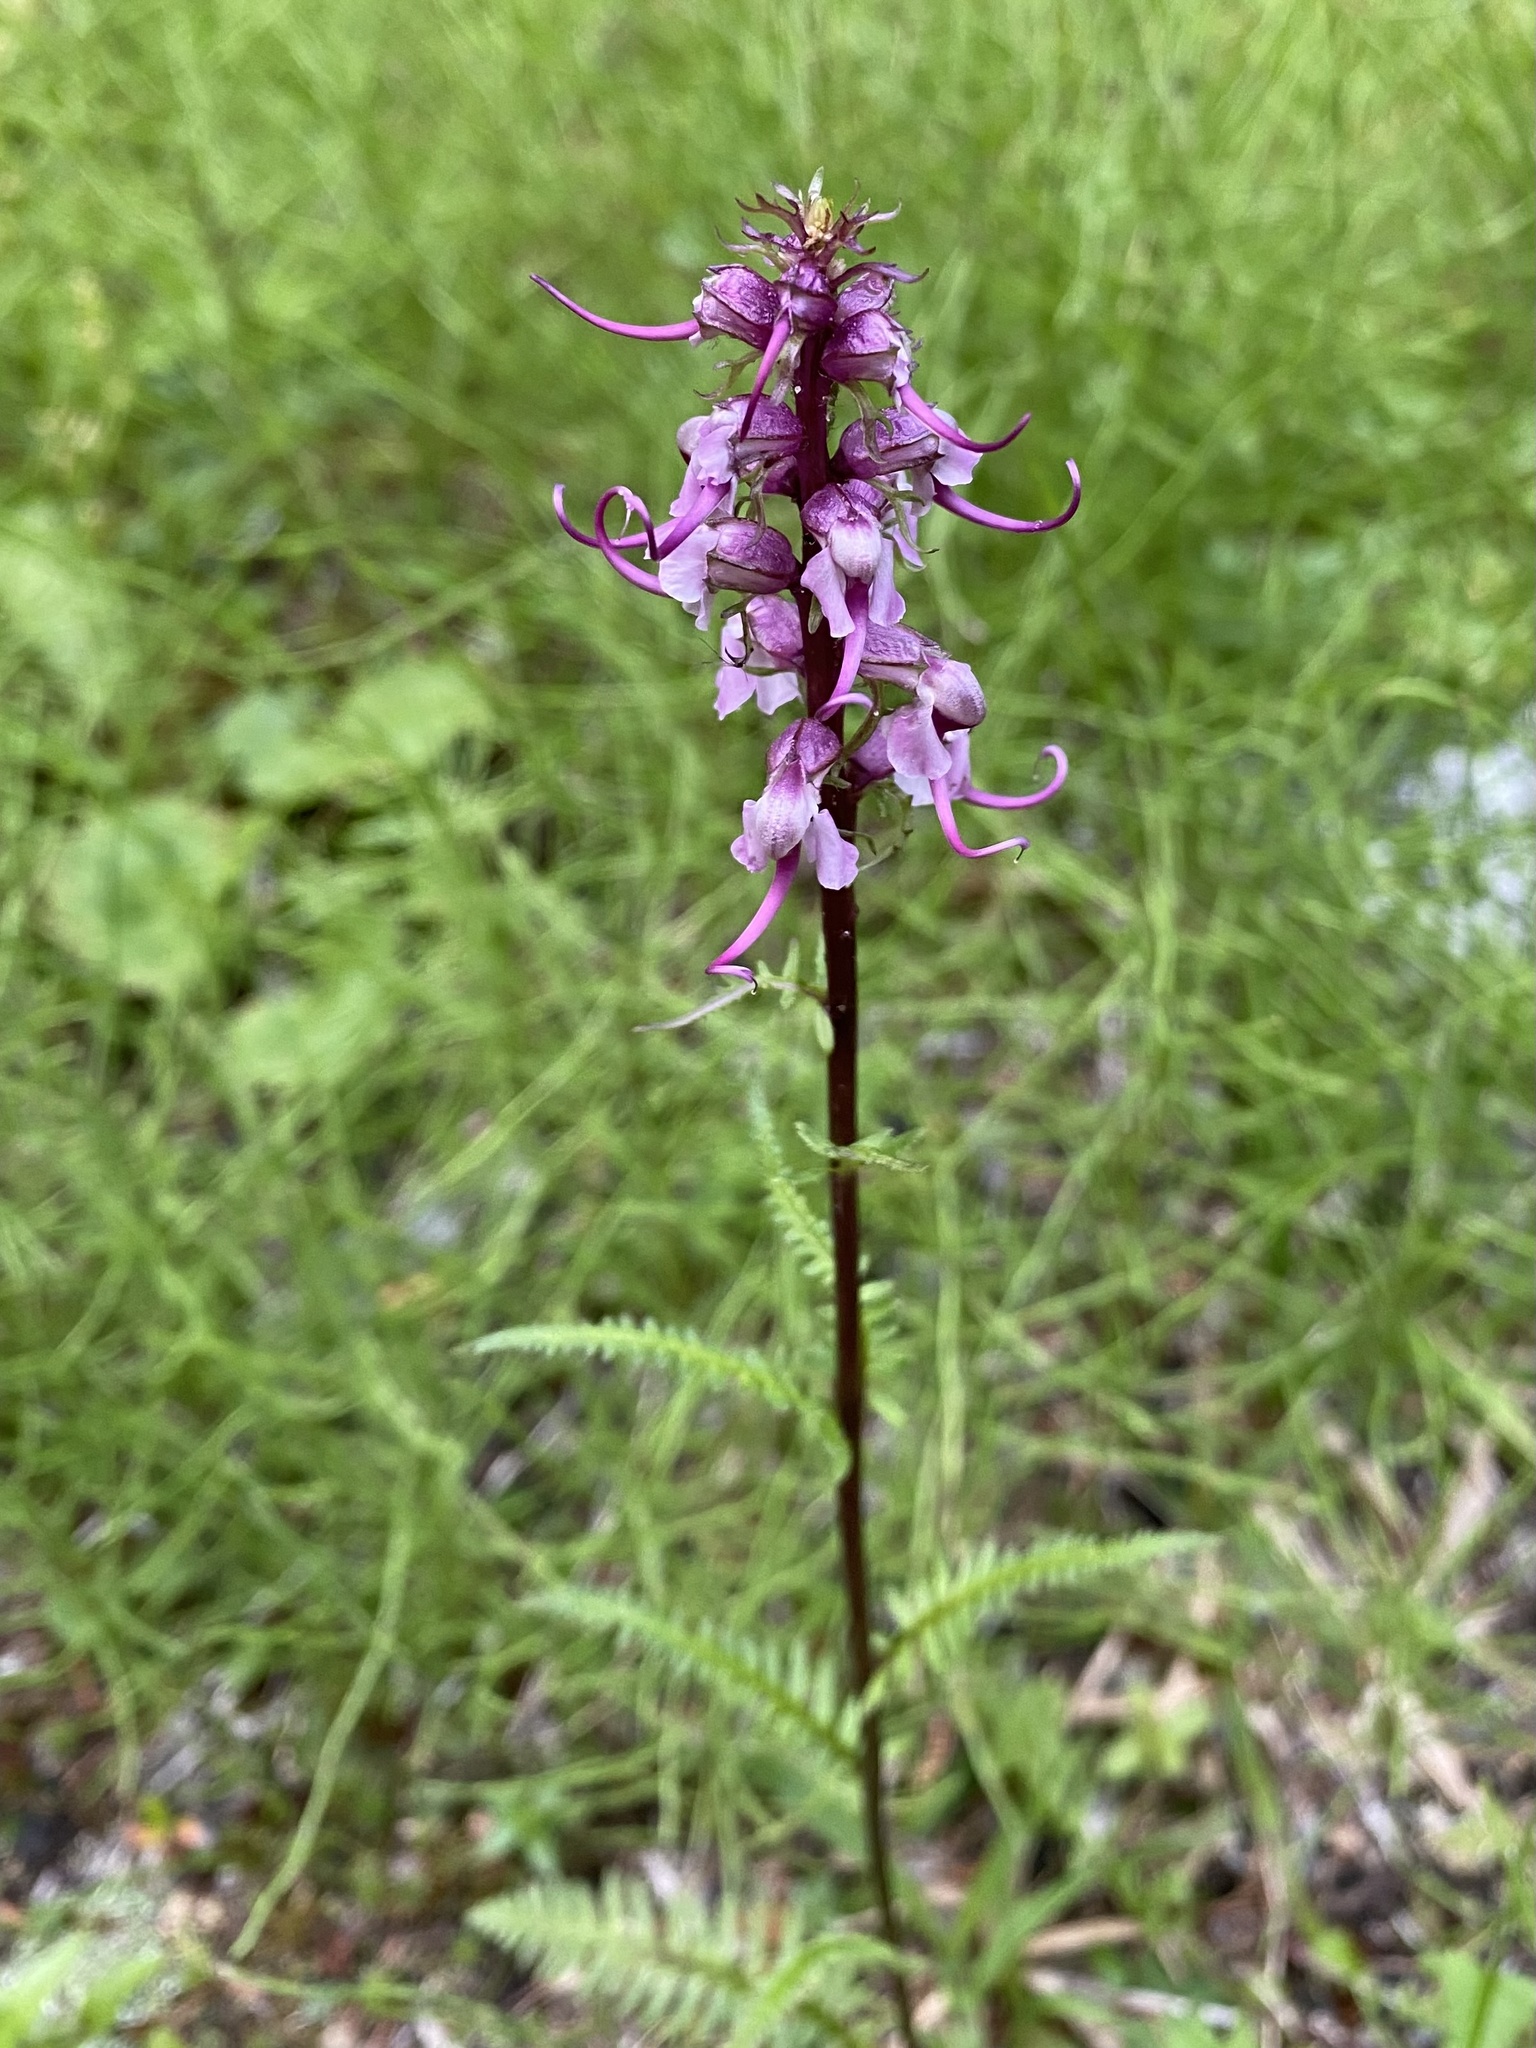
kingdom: Plantae
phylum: Tracheophyta
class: Magnoliopsida
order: Lamiales
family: Orobanchaceae
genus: Pedicularis
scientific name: Pedicularis groenlandica
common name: Elephant's-head
